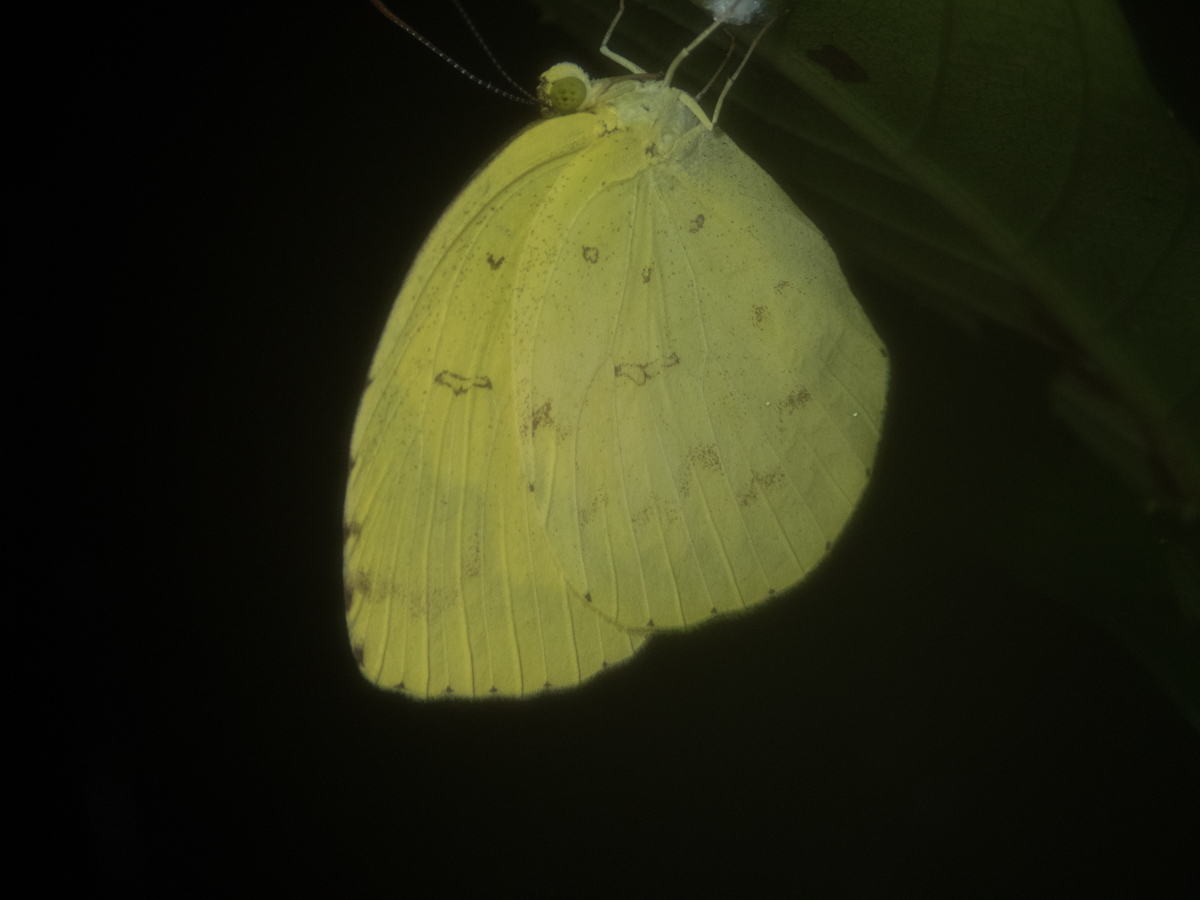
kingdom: Animalia
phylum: Arthropoda
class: Insecta
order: Lepidoptera
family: Pieridae
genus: Eurema
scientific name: Eurema hecabe
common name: Pale grass yellow
